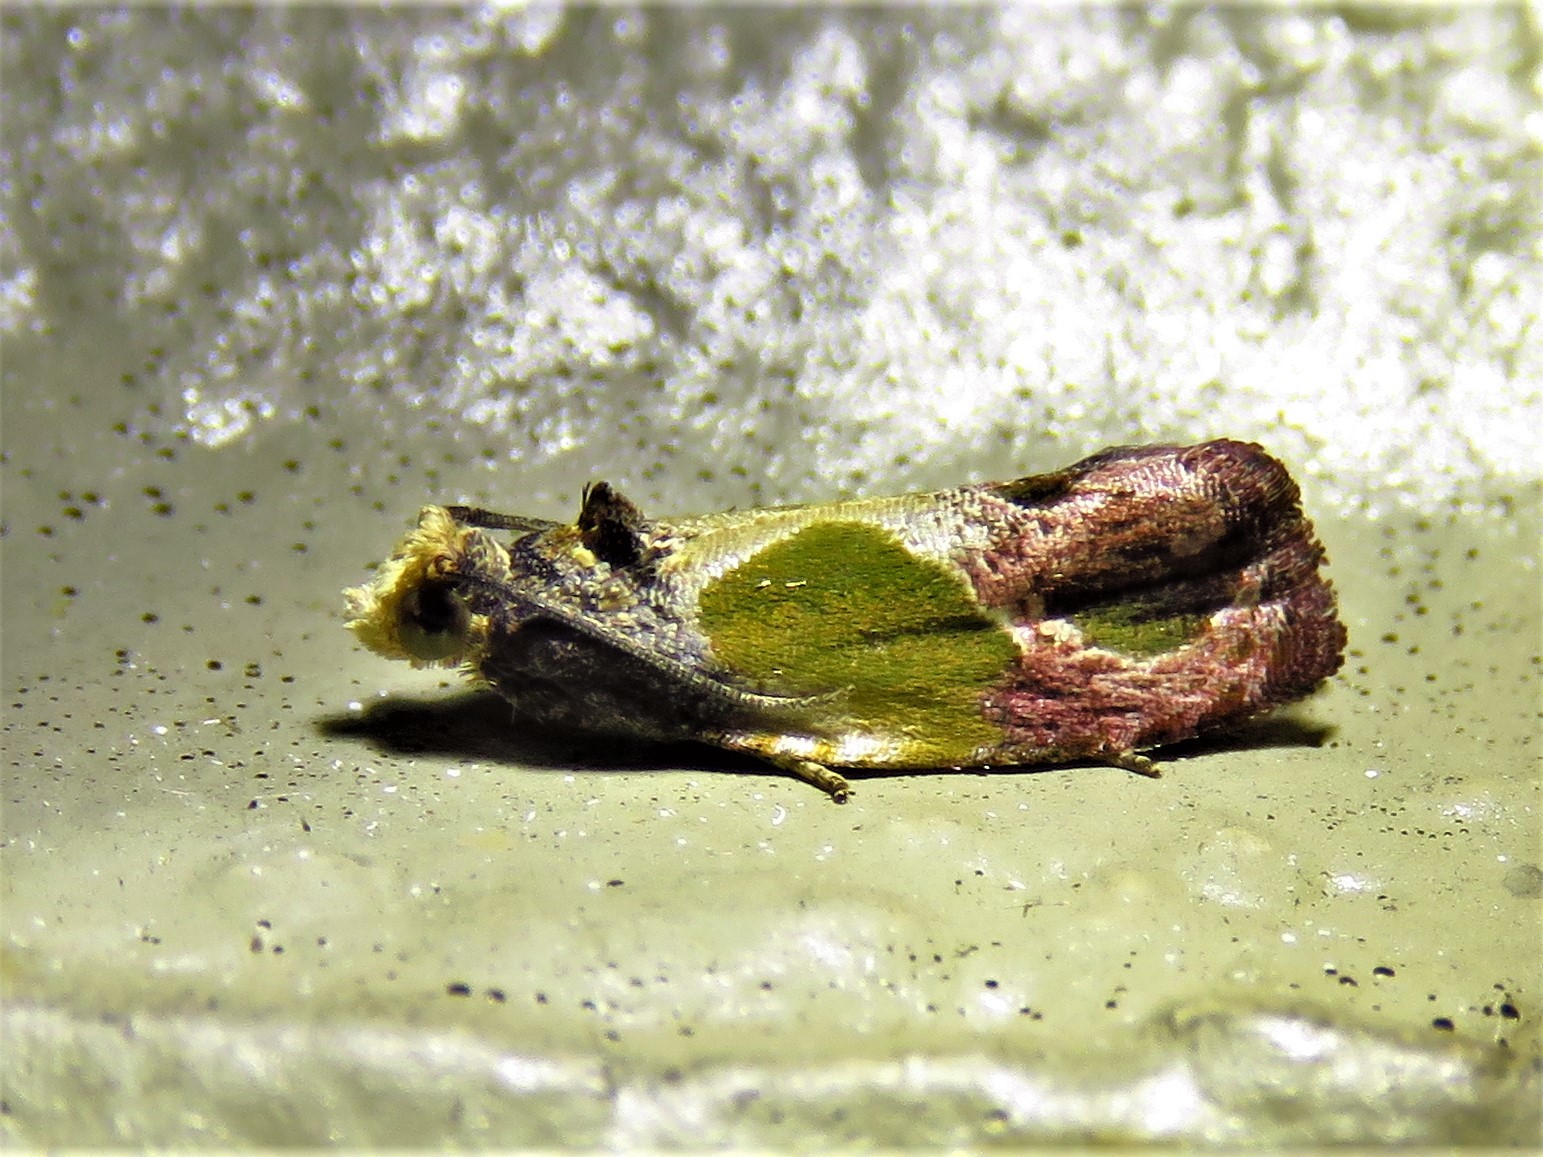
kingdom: Animalia
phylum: Arthropoda
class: Insecta
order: Lepidoptera
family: Tortricidae
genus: Eumarozia
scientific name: Eumarozia malachitana
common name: Sculptured moth
